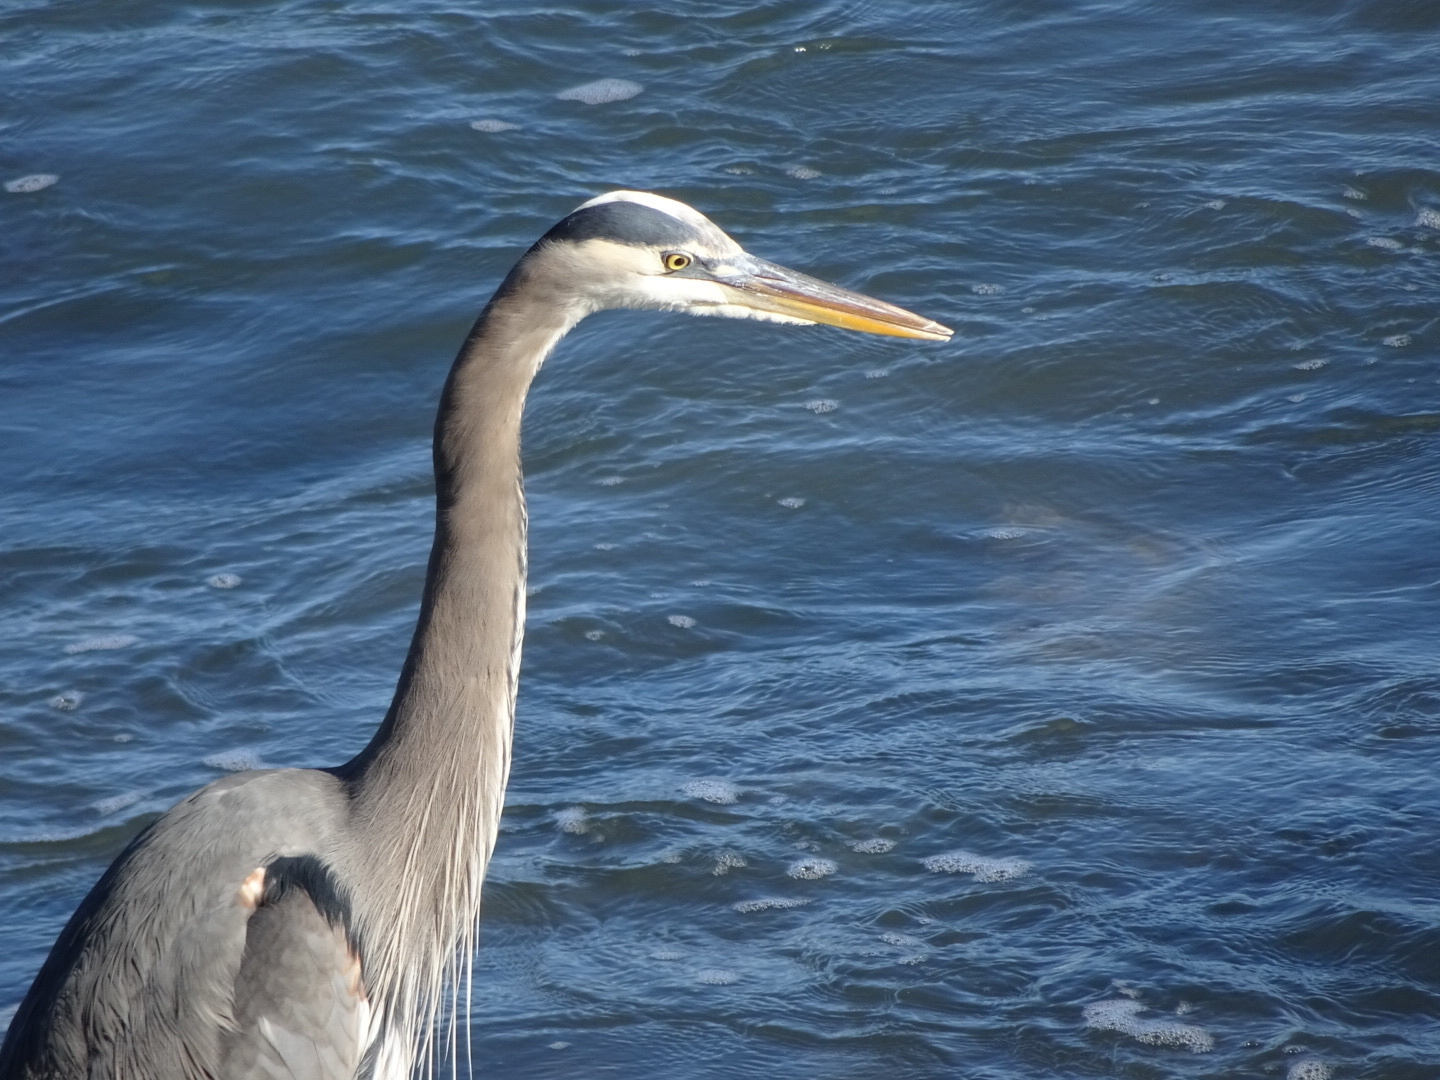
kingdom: Animalia
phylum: Chordata
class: Aves
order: Pelecaniformes
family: Ardeidae
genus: Ardea
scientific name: Ardea herodias
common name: Great blue heron
